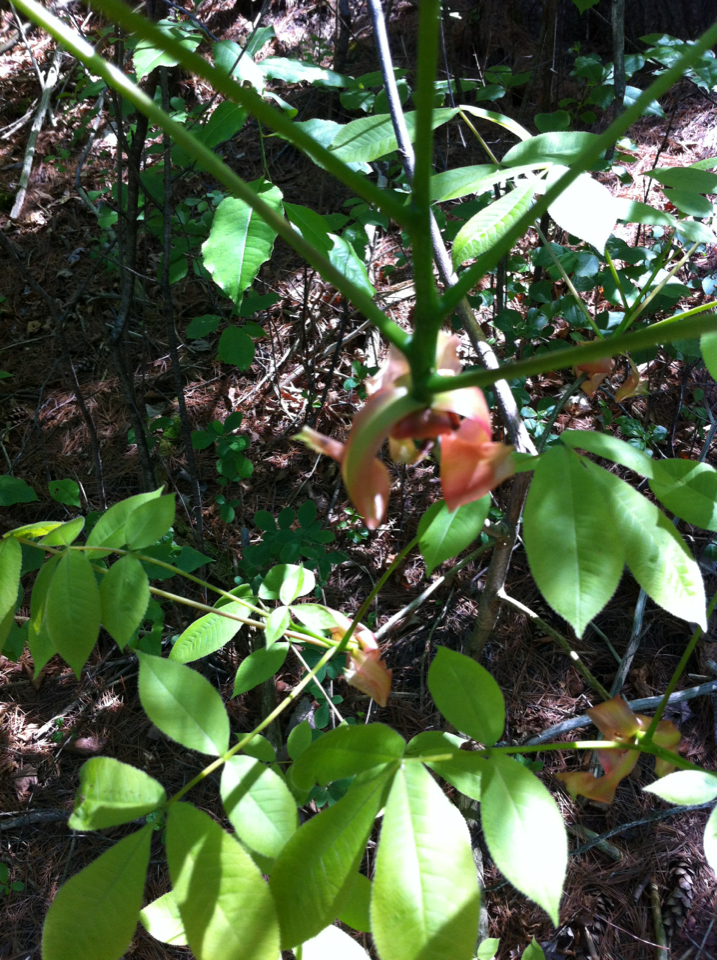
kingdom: Plantae
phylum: Tracheophyta
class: Magnoliopsida
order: Fagales
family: Juglandaceae
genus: Carya
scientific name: Carya ovata
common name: Shagbark hickory
